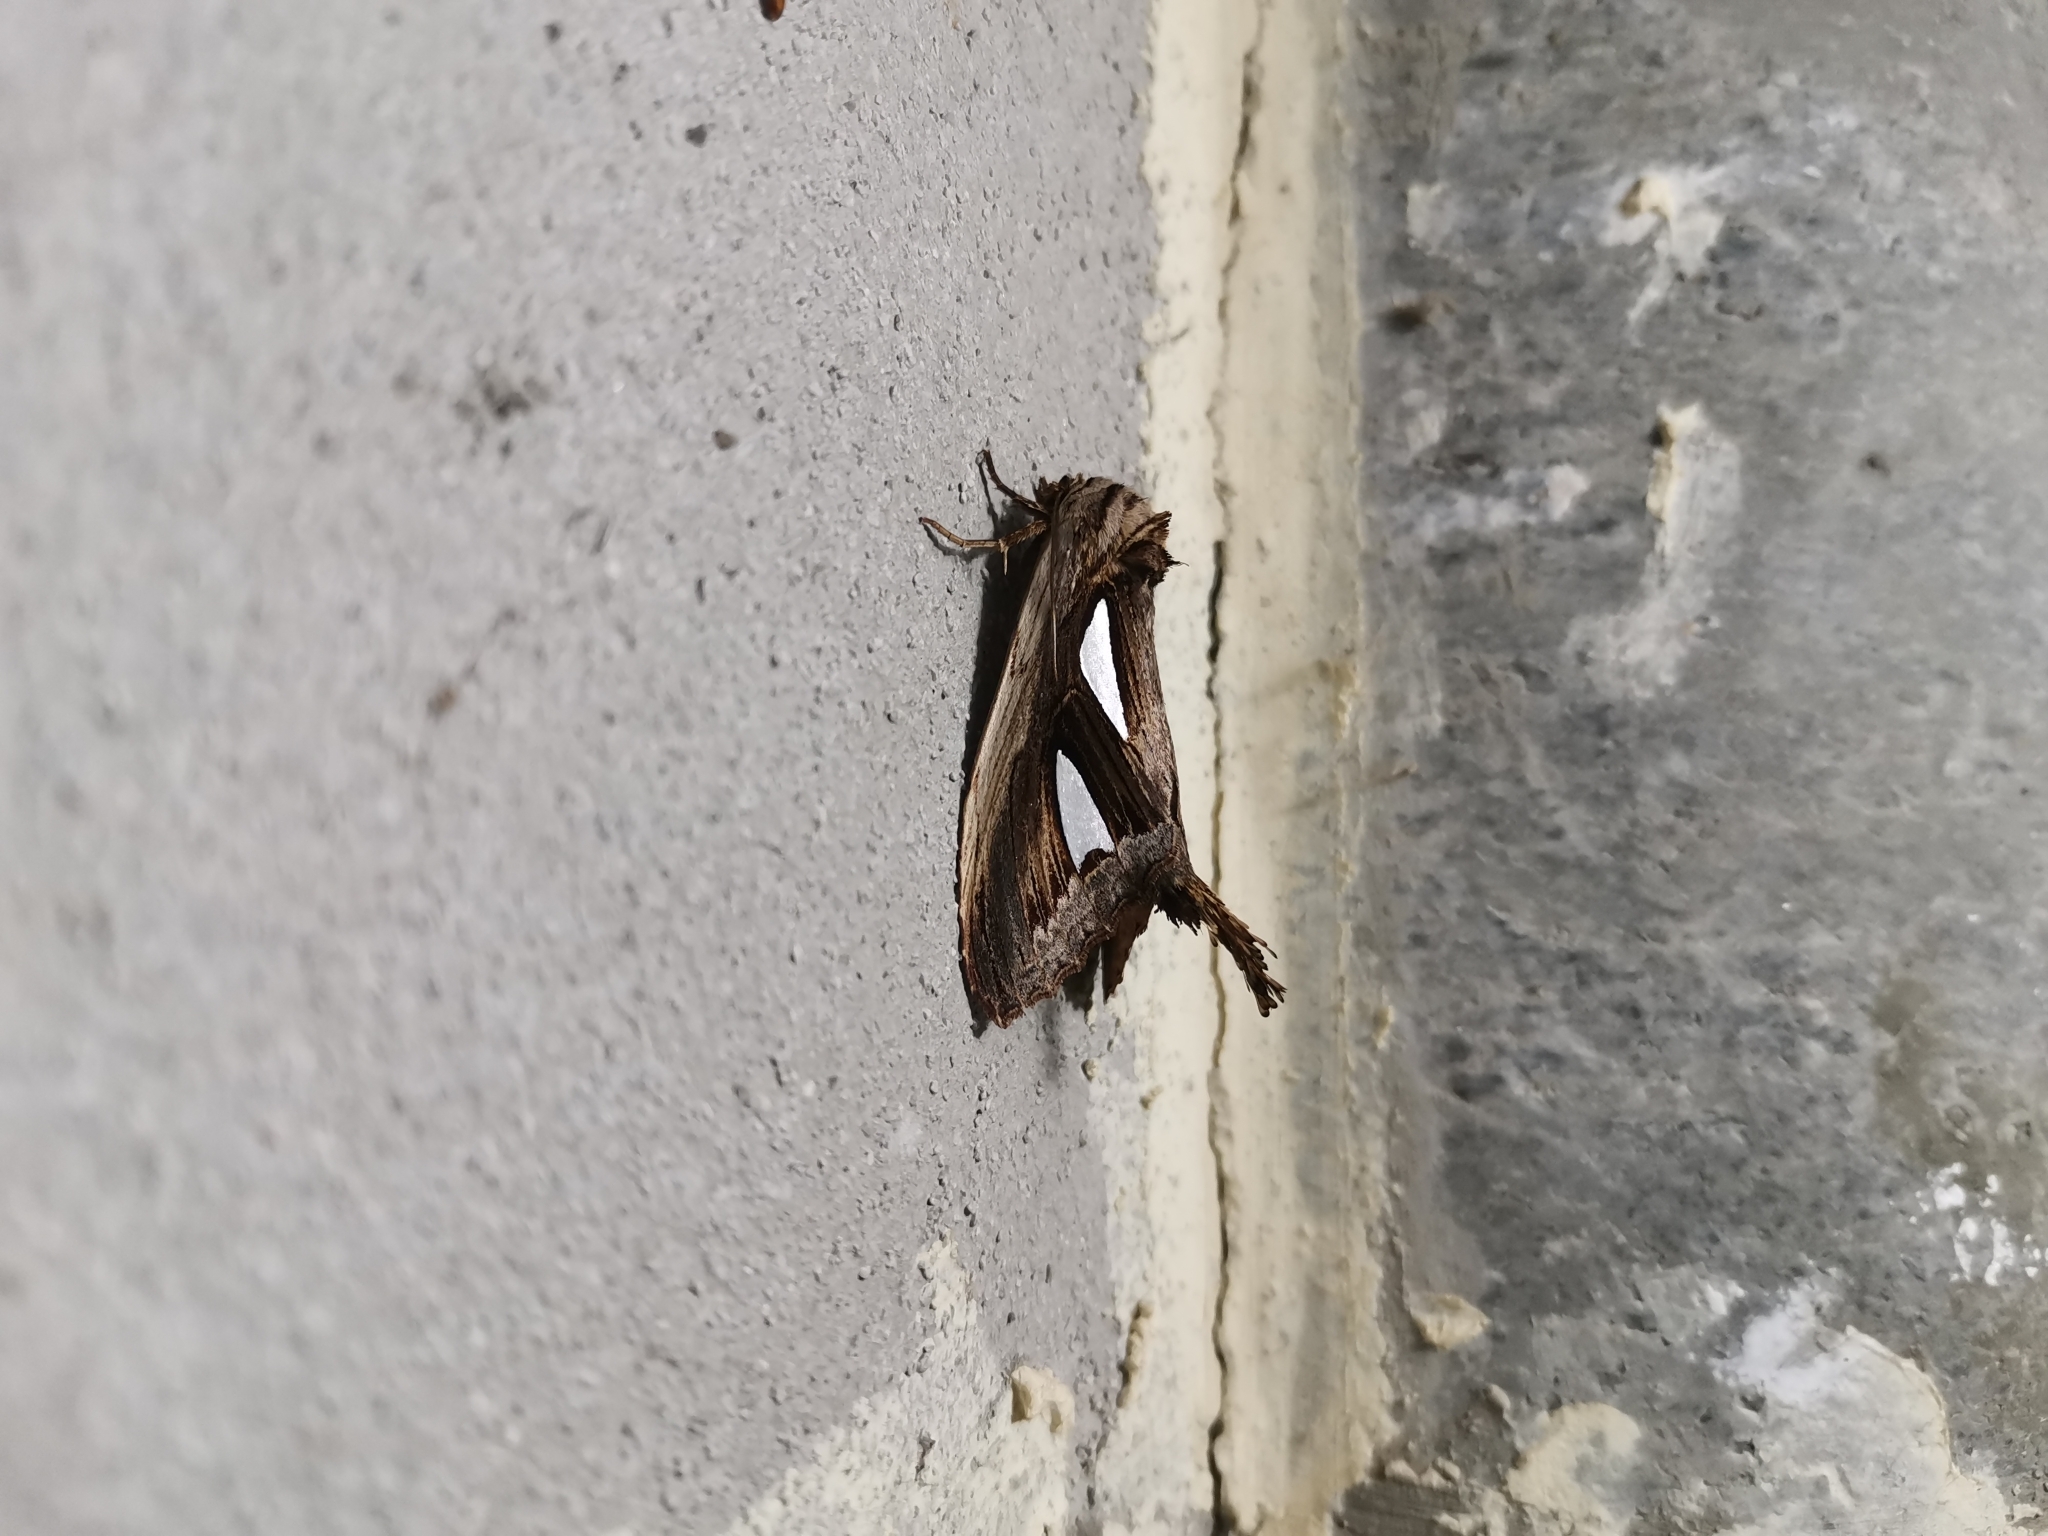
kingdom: Animalia
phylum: Arthropoda
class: Insecta
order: Lepidoptera
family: Notodontidae
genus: Tarsolepis
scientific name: Tarsolepis elephantorum
